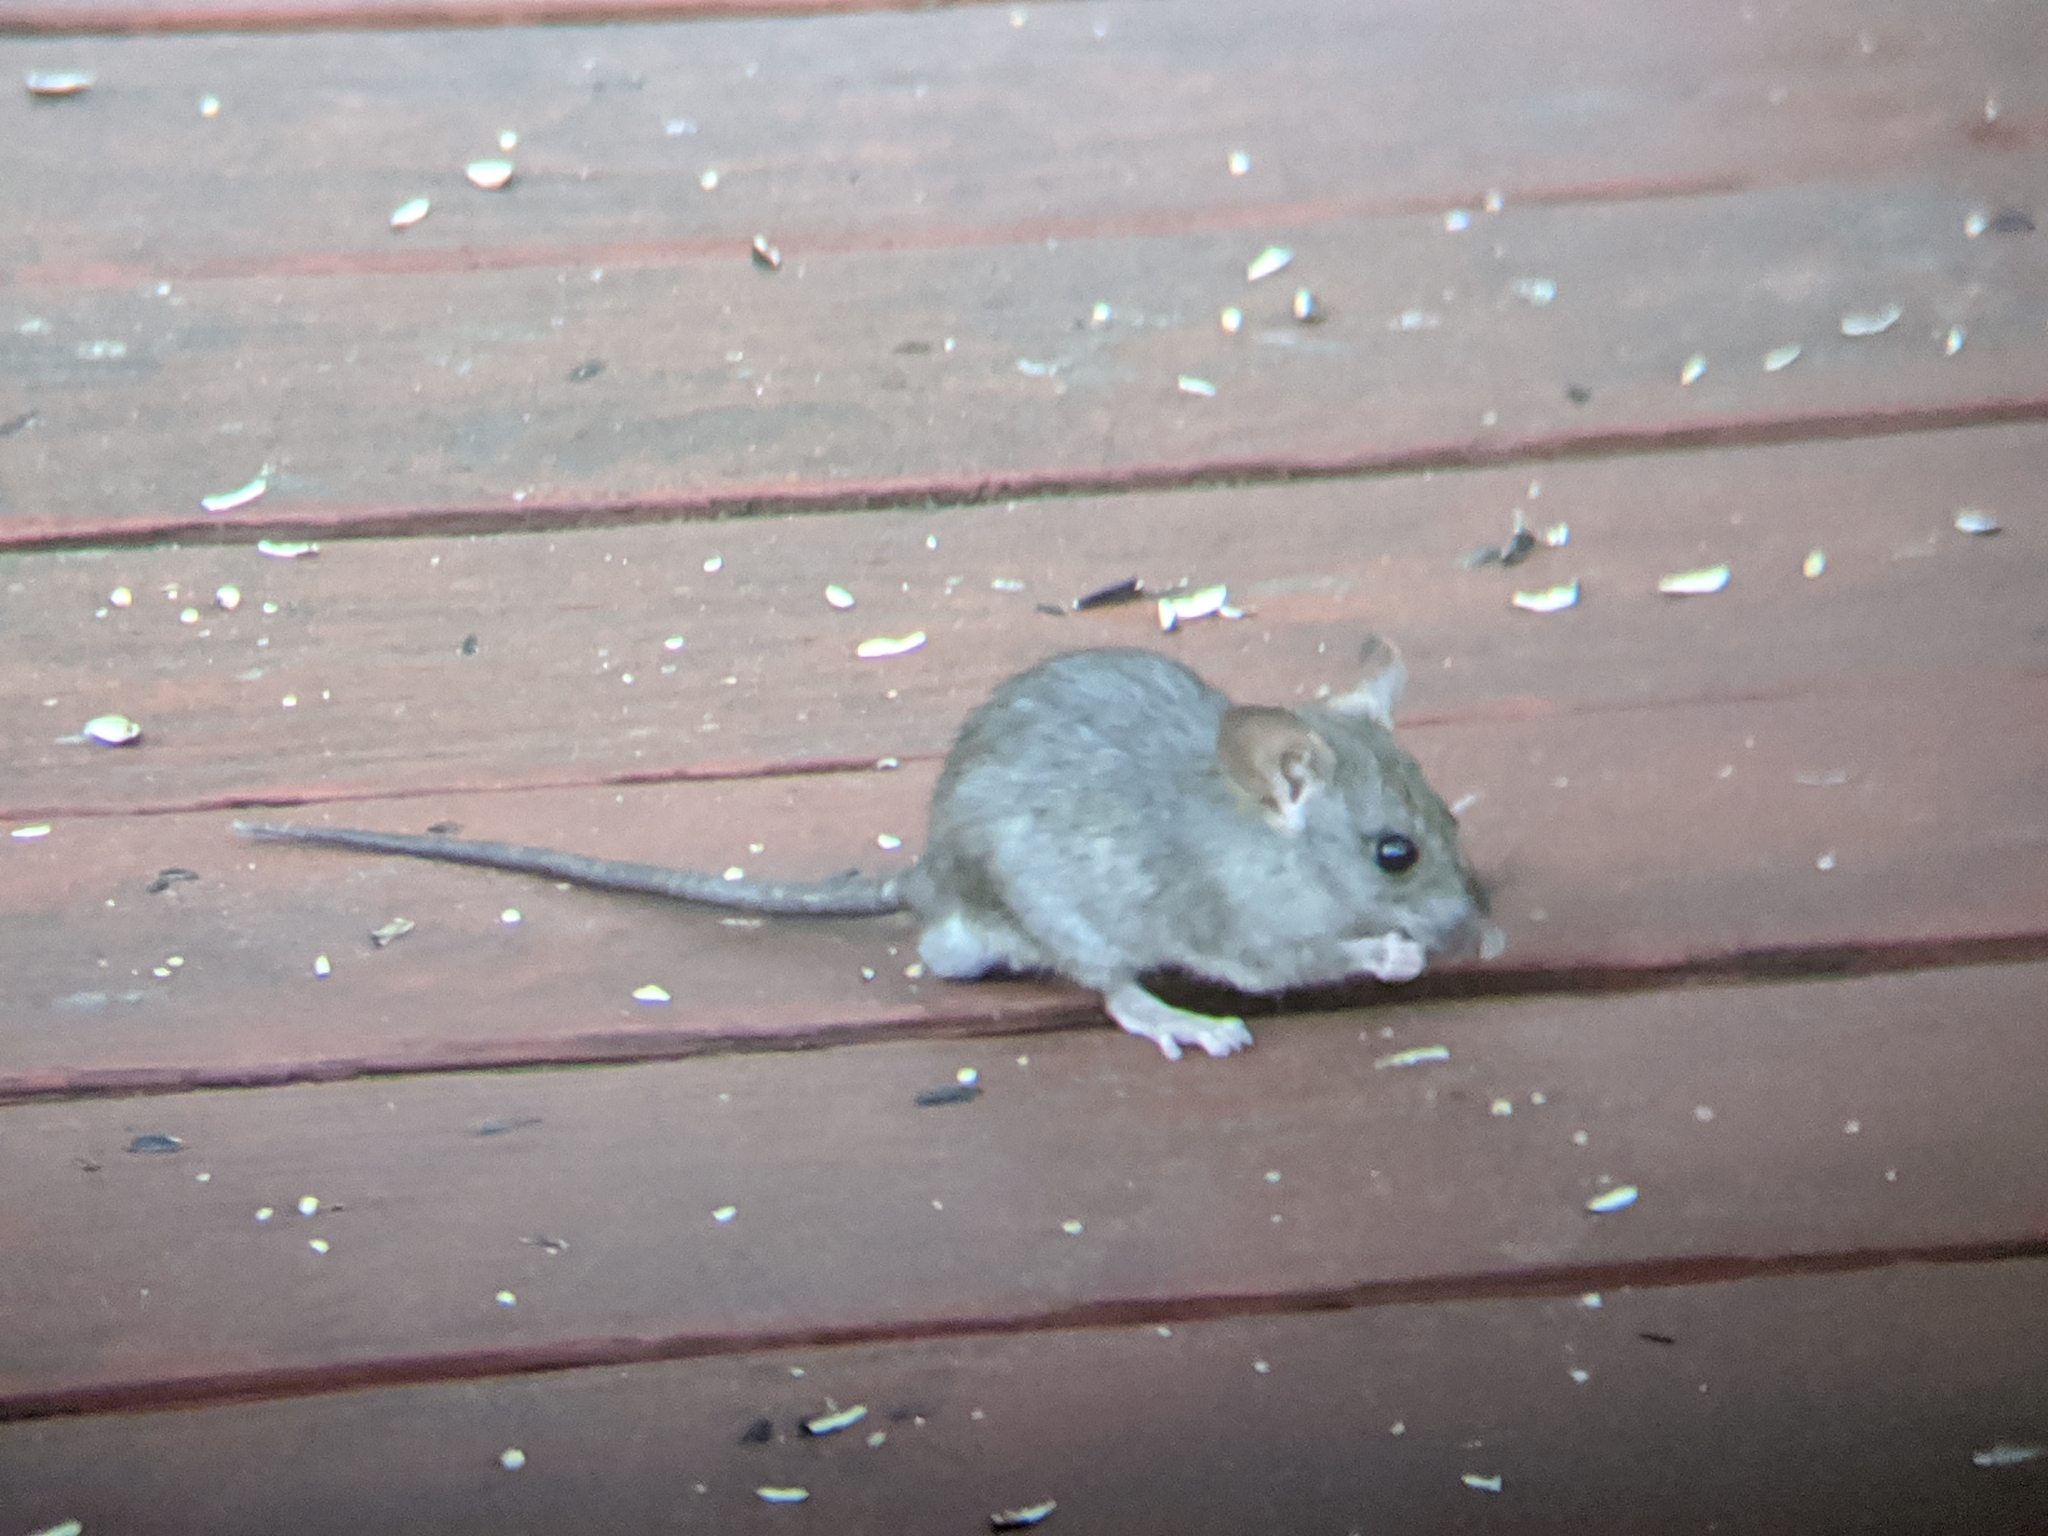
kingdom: Animalia
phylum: Chordata
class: Mammalia
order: Rodentia
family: Muridae
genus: Rattus
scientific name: Rattus rattus
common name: Black rat
